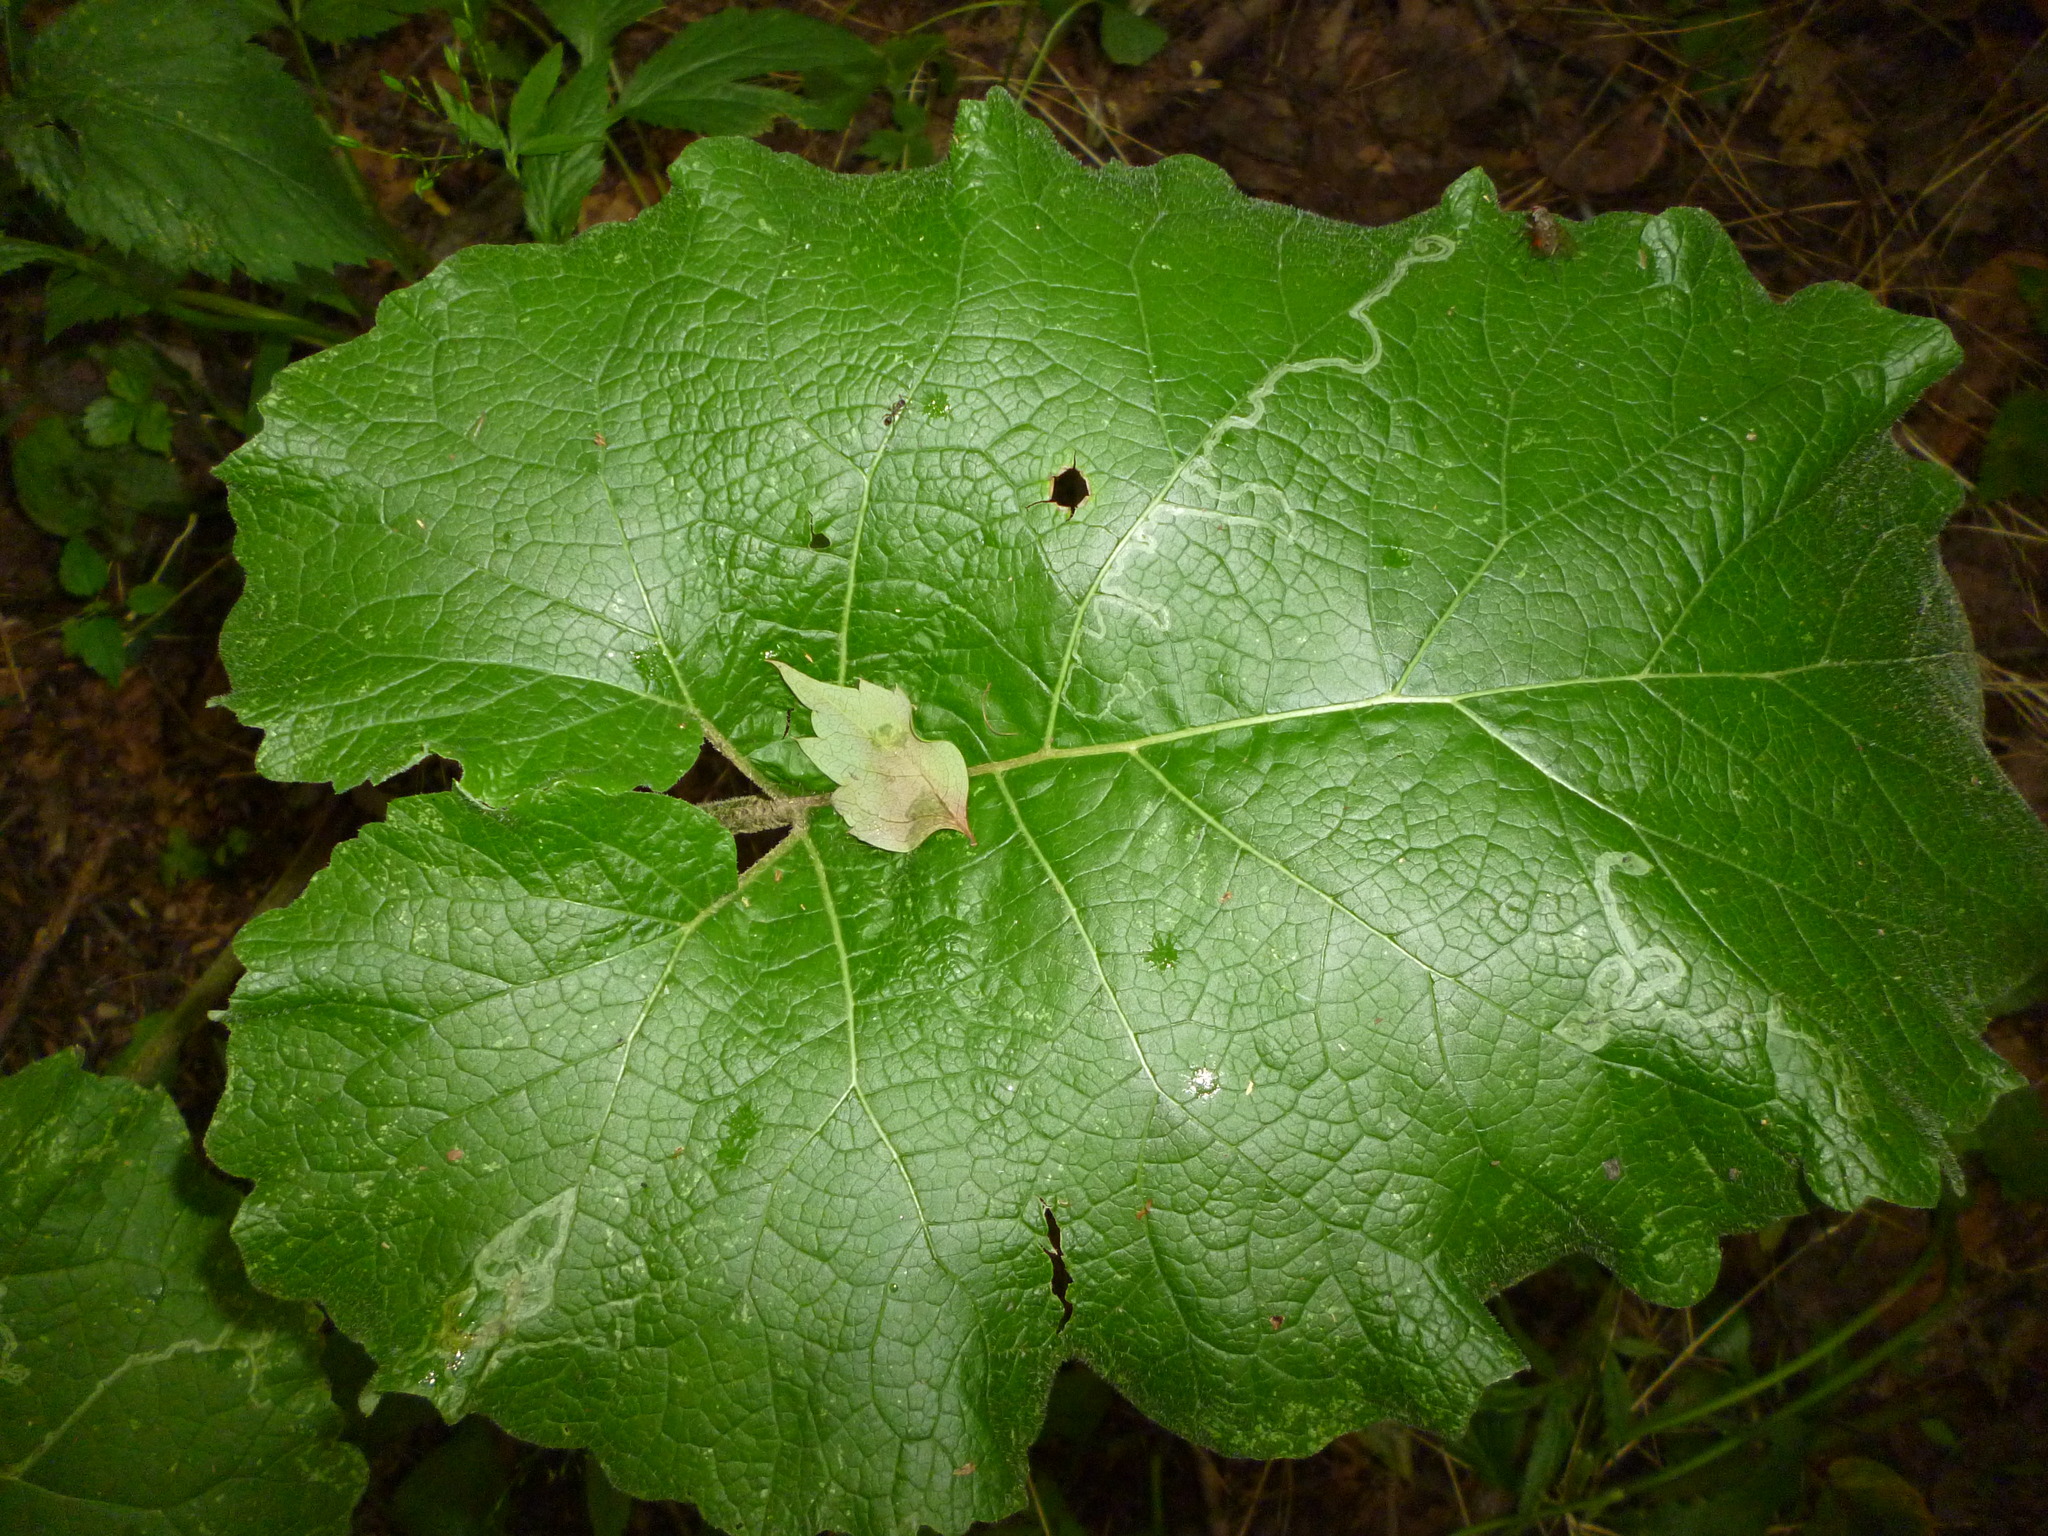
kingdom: Animalia
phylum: Arthropoda
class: Insecta
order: Diptera
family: Agromyzidae
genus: Liriomyza
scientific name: Liriomyza arctii
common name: Burdock leafminer
